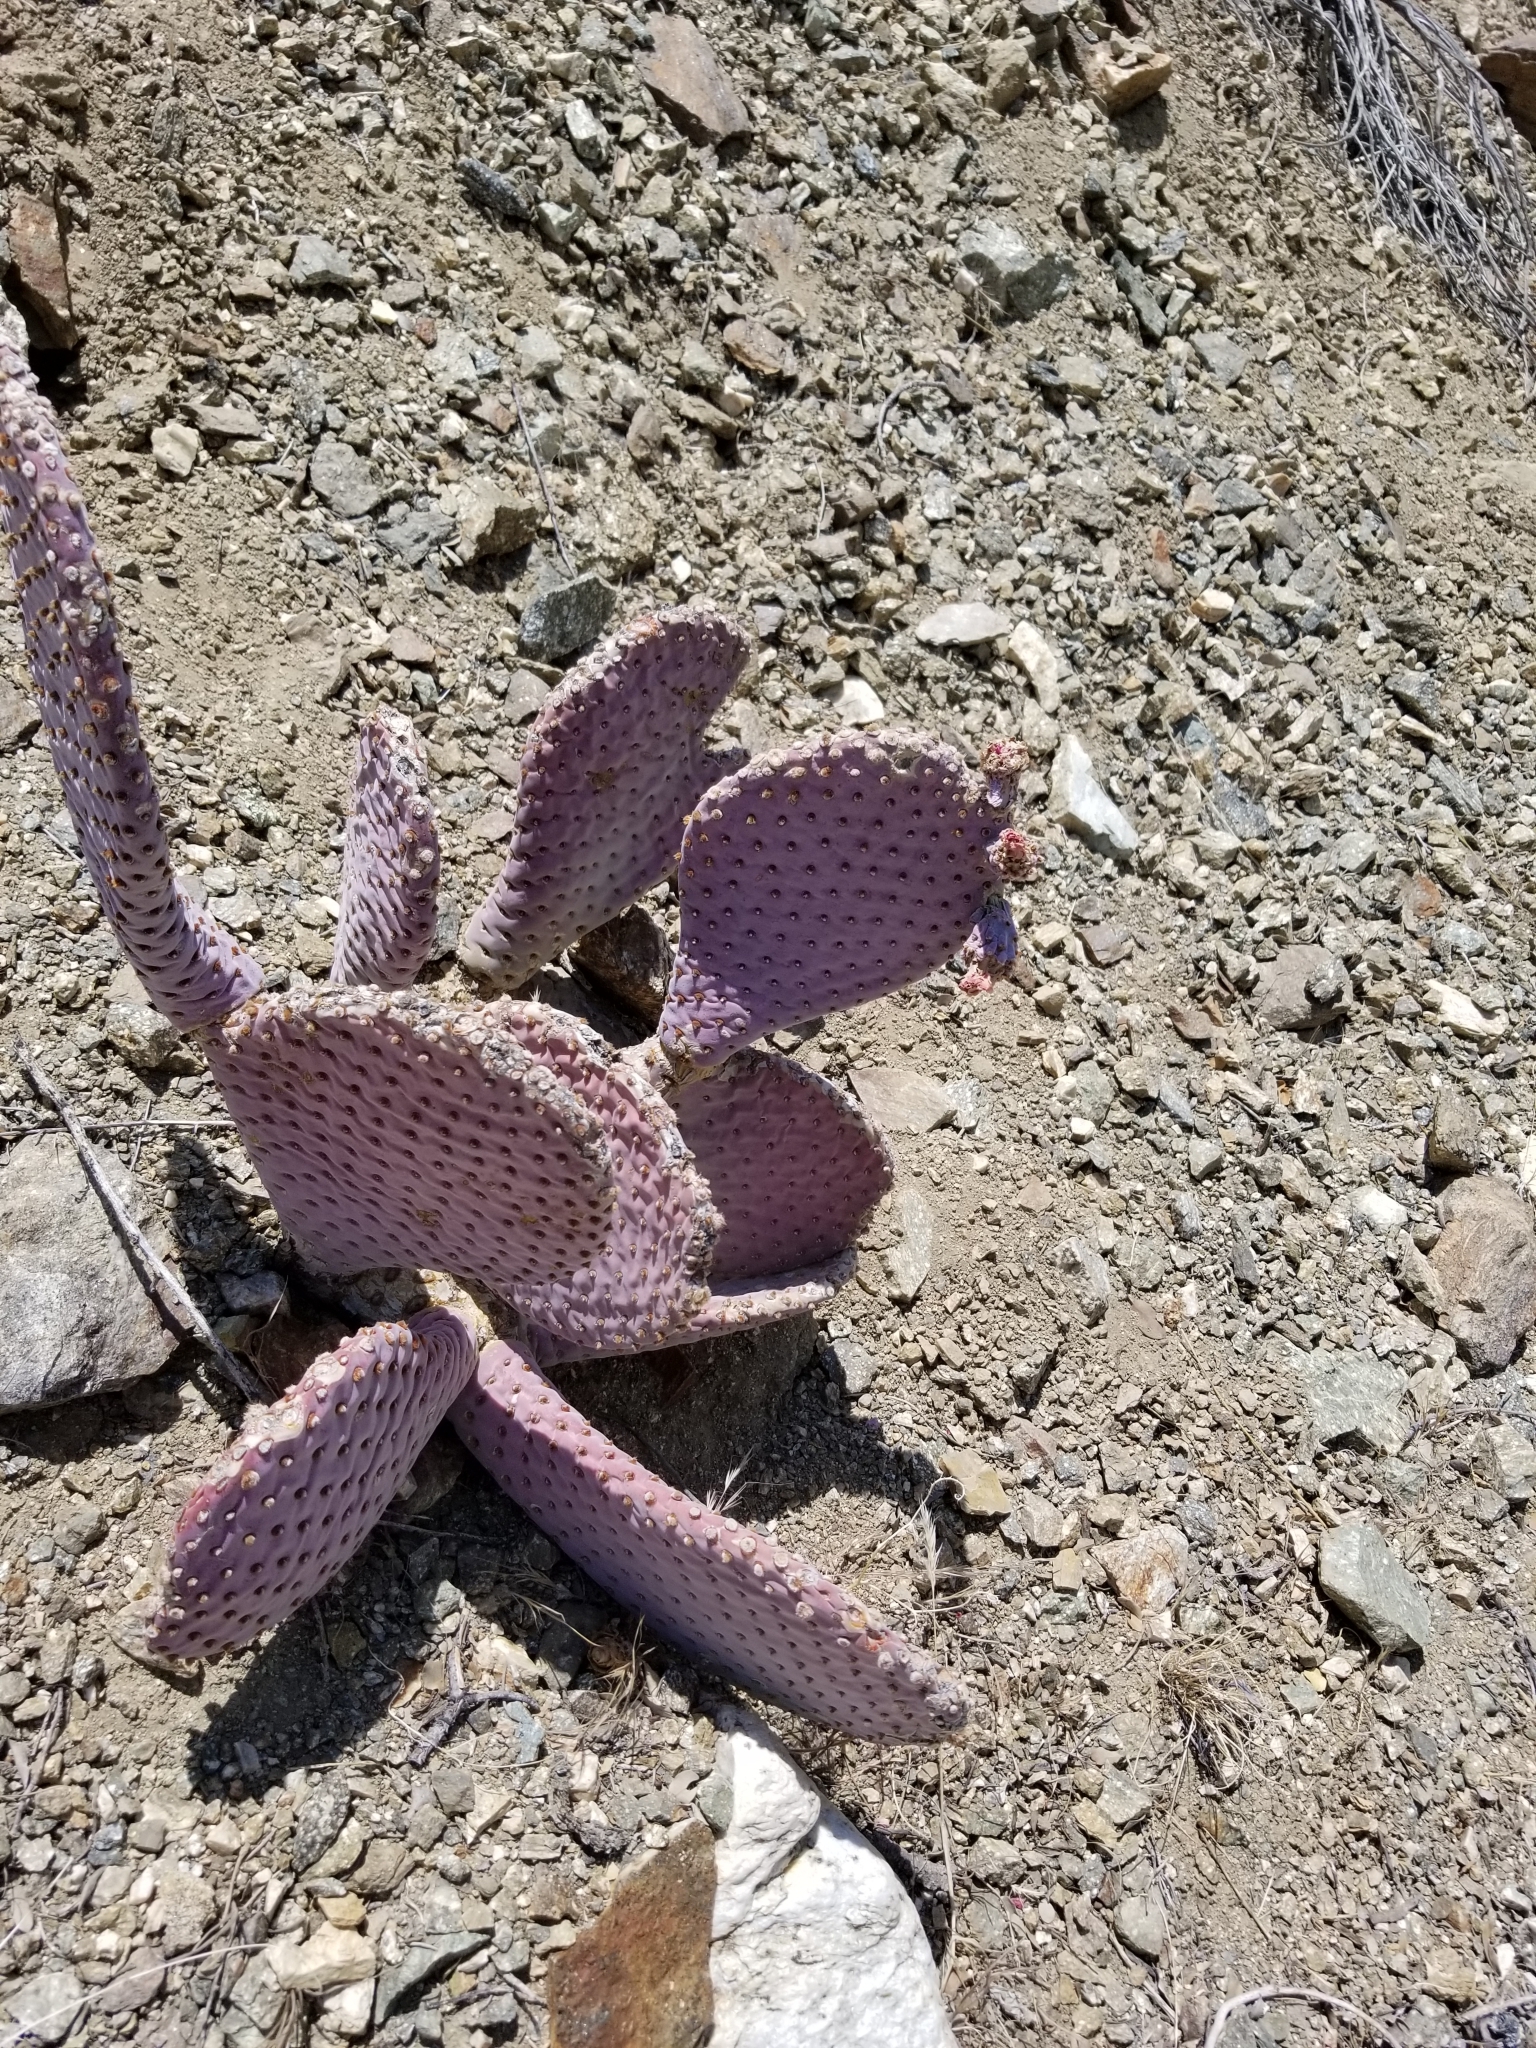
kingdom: Plantae
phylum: Tracheophyta
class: Magnoliopsida
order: Caryophyllales
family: Cactaceae
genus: Opuntia
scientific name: Opuntia basilaris
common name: Beavertail prickly-pear
